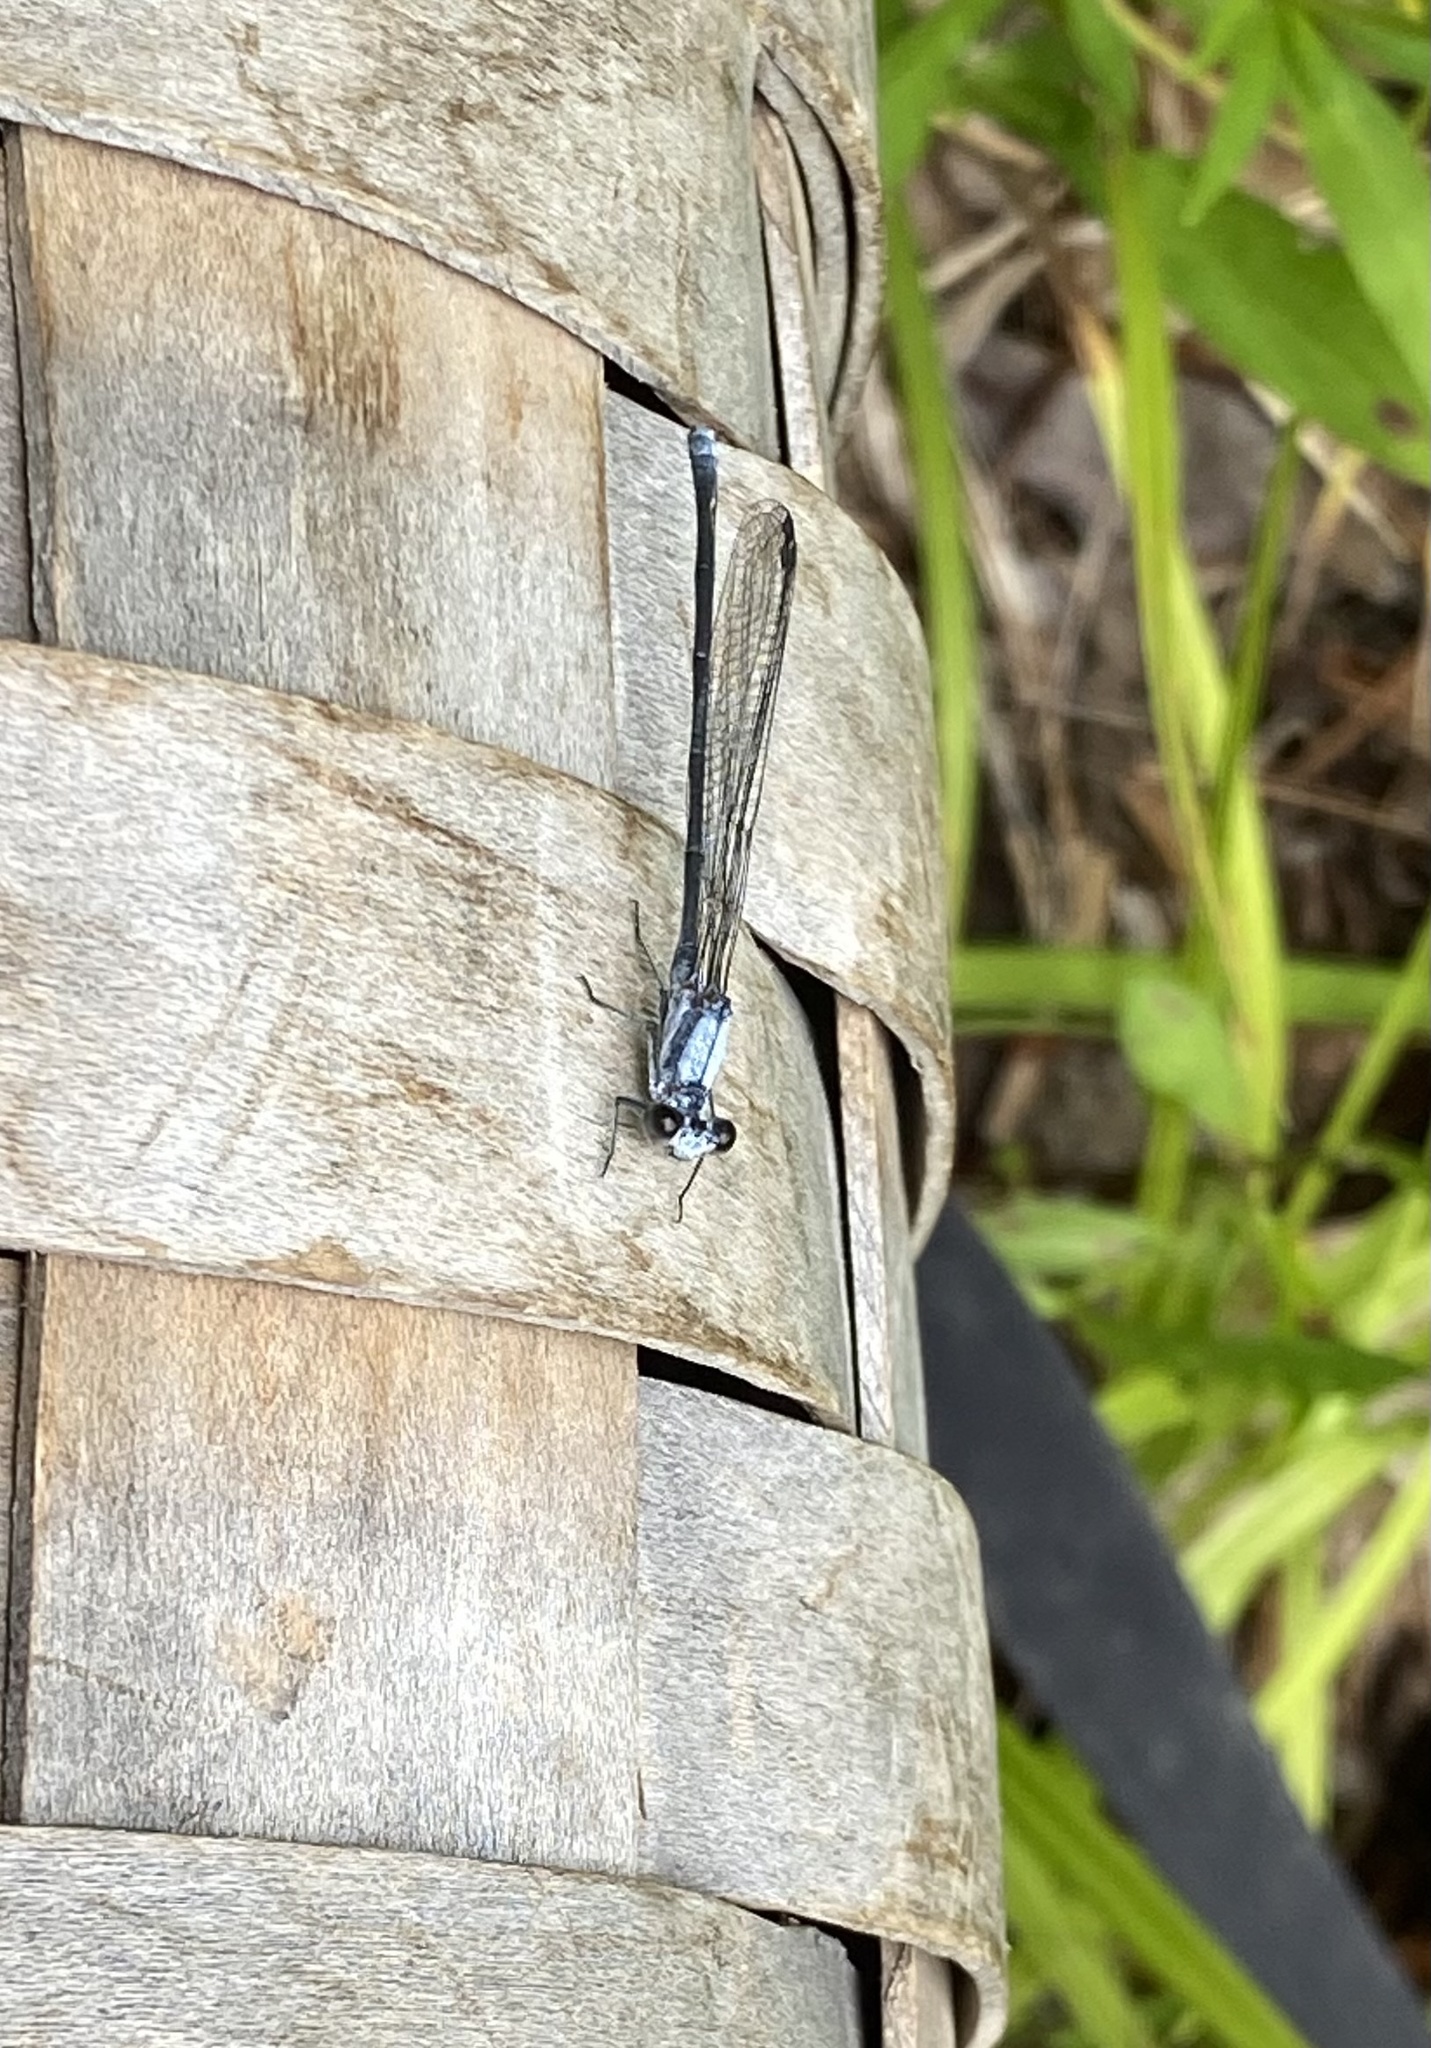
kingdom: Animalia
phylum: Arthropoda
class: Insecta
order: Odonata
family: Coenagrionidae
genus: Argia
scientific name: Argia moesta
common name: Powdered dancer
